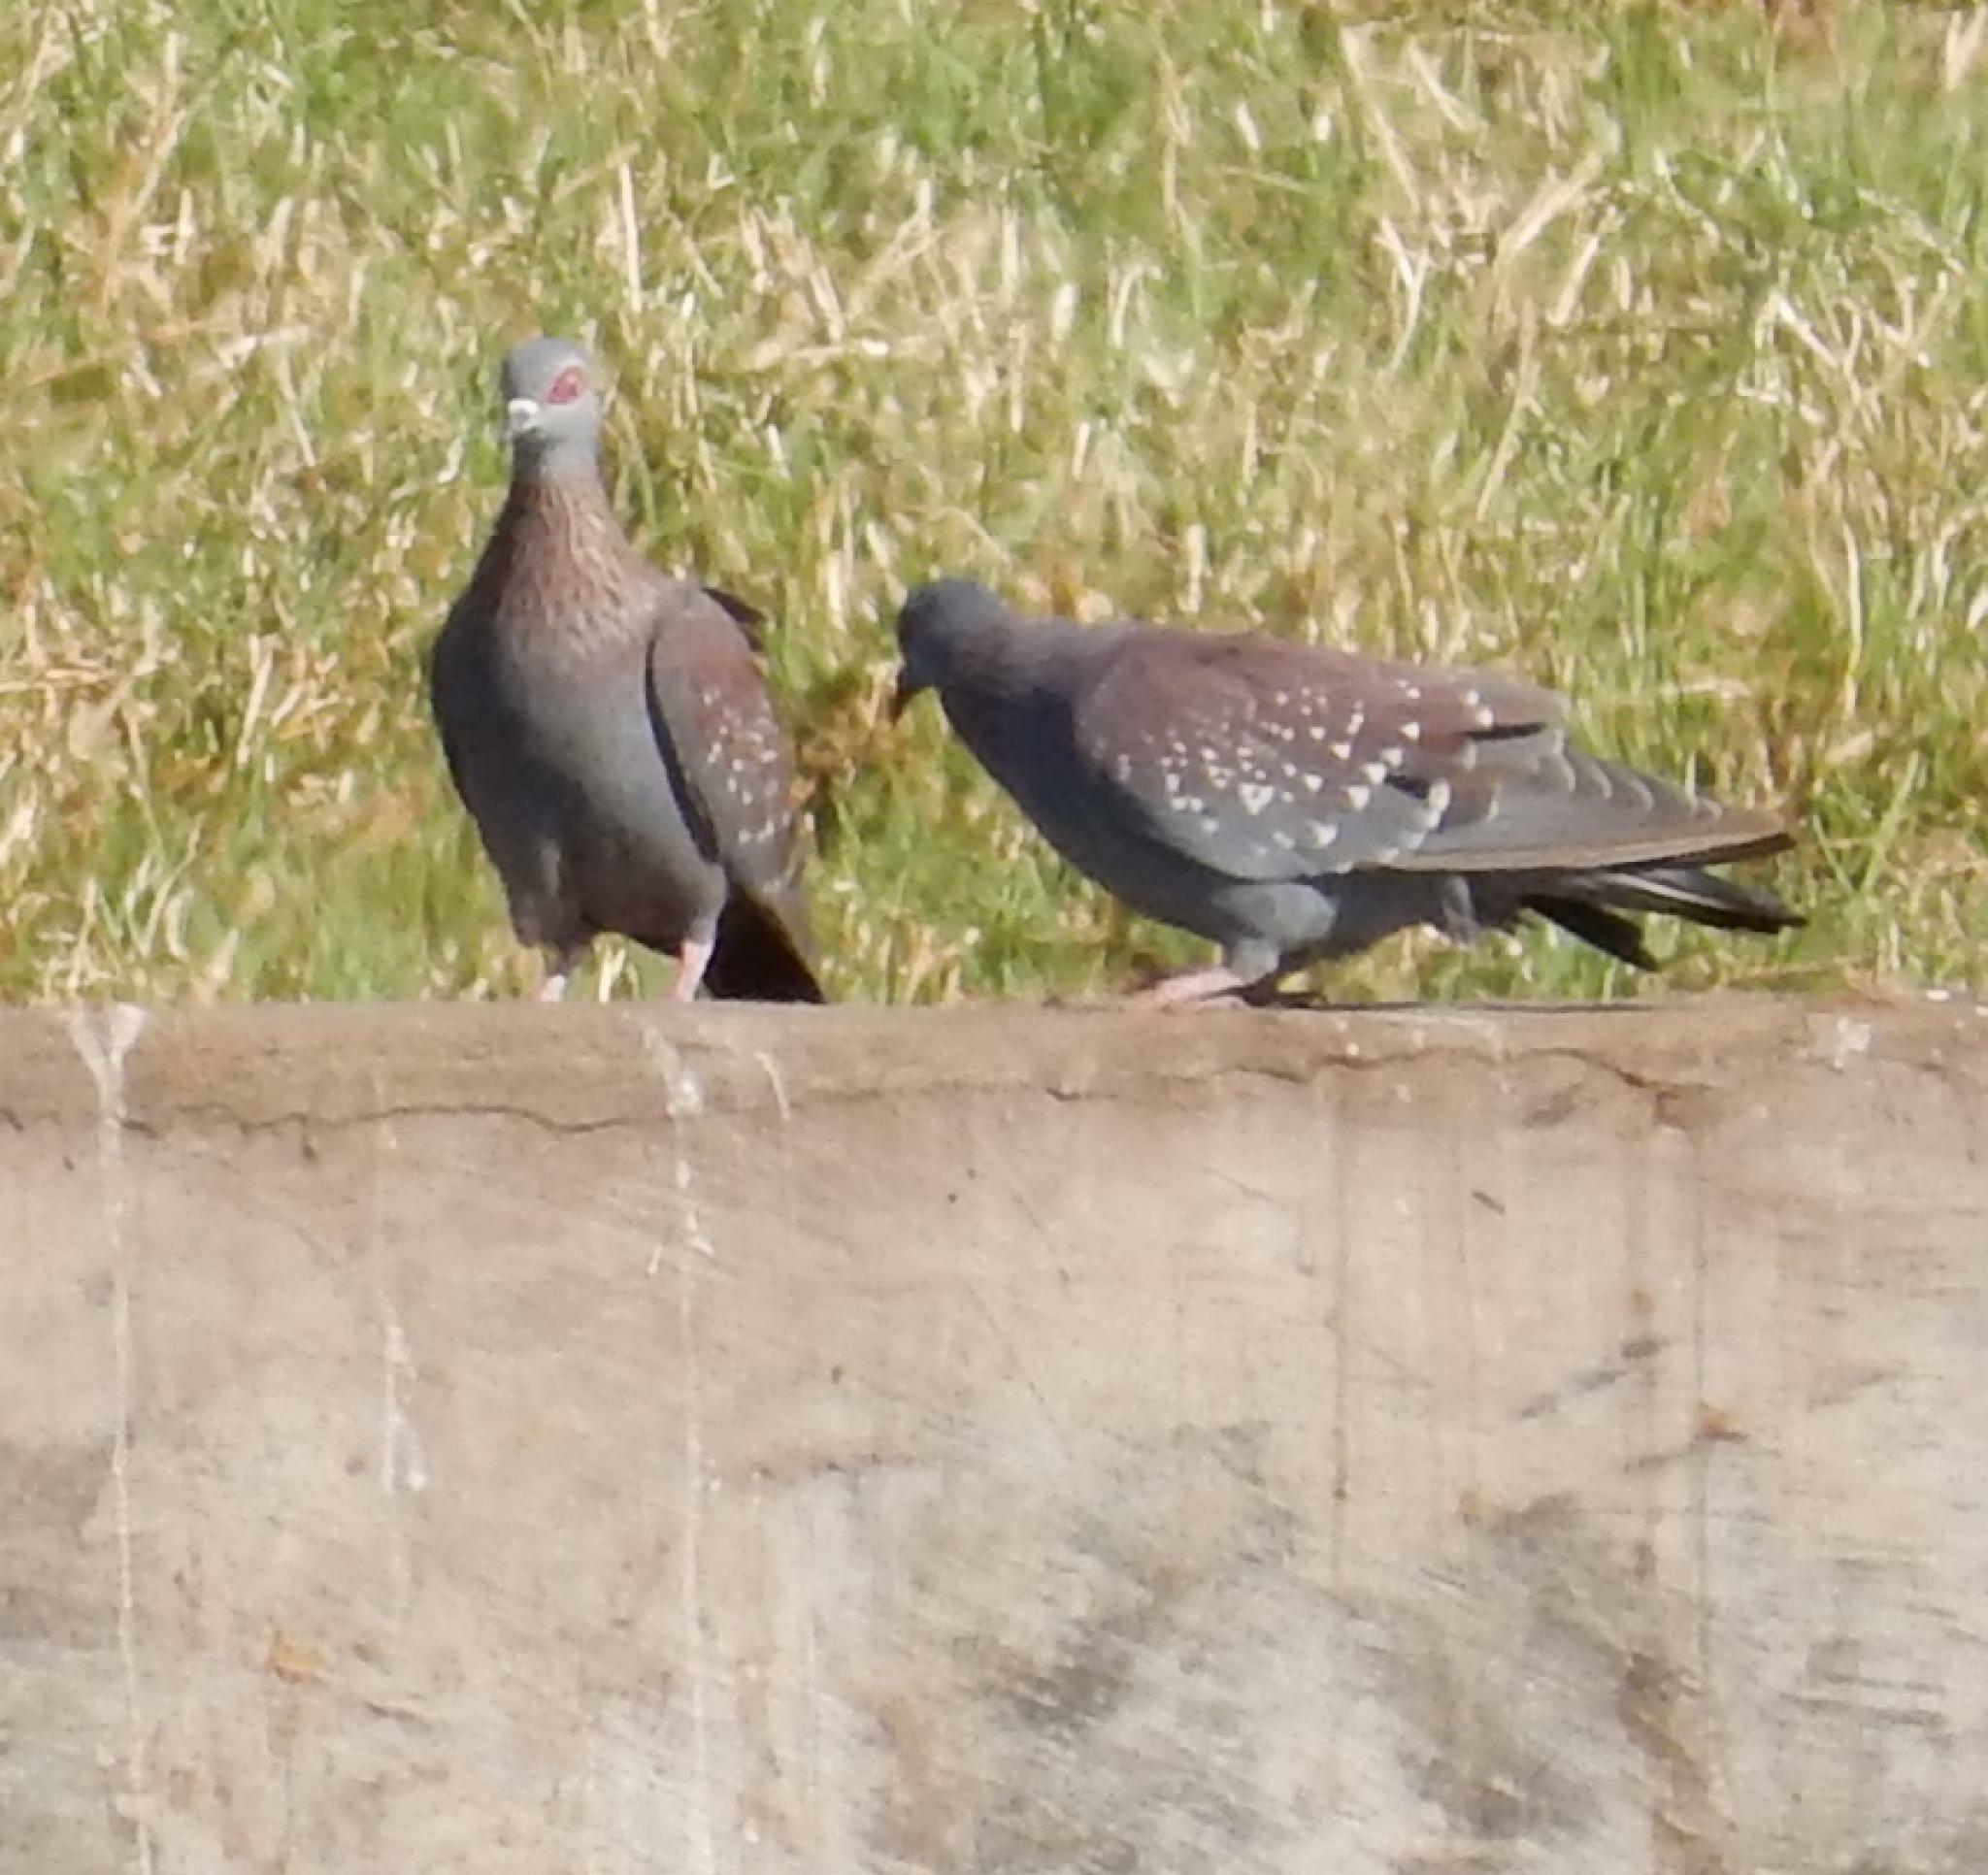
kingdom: Animalia
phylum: Chordata
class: Aves
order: Columbiformes
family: Columbidae
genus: Columba
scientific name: Columba guinea
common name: Speckled pigeon
